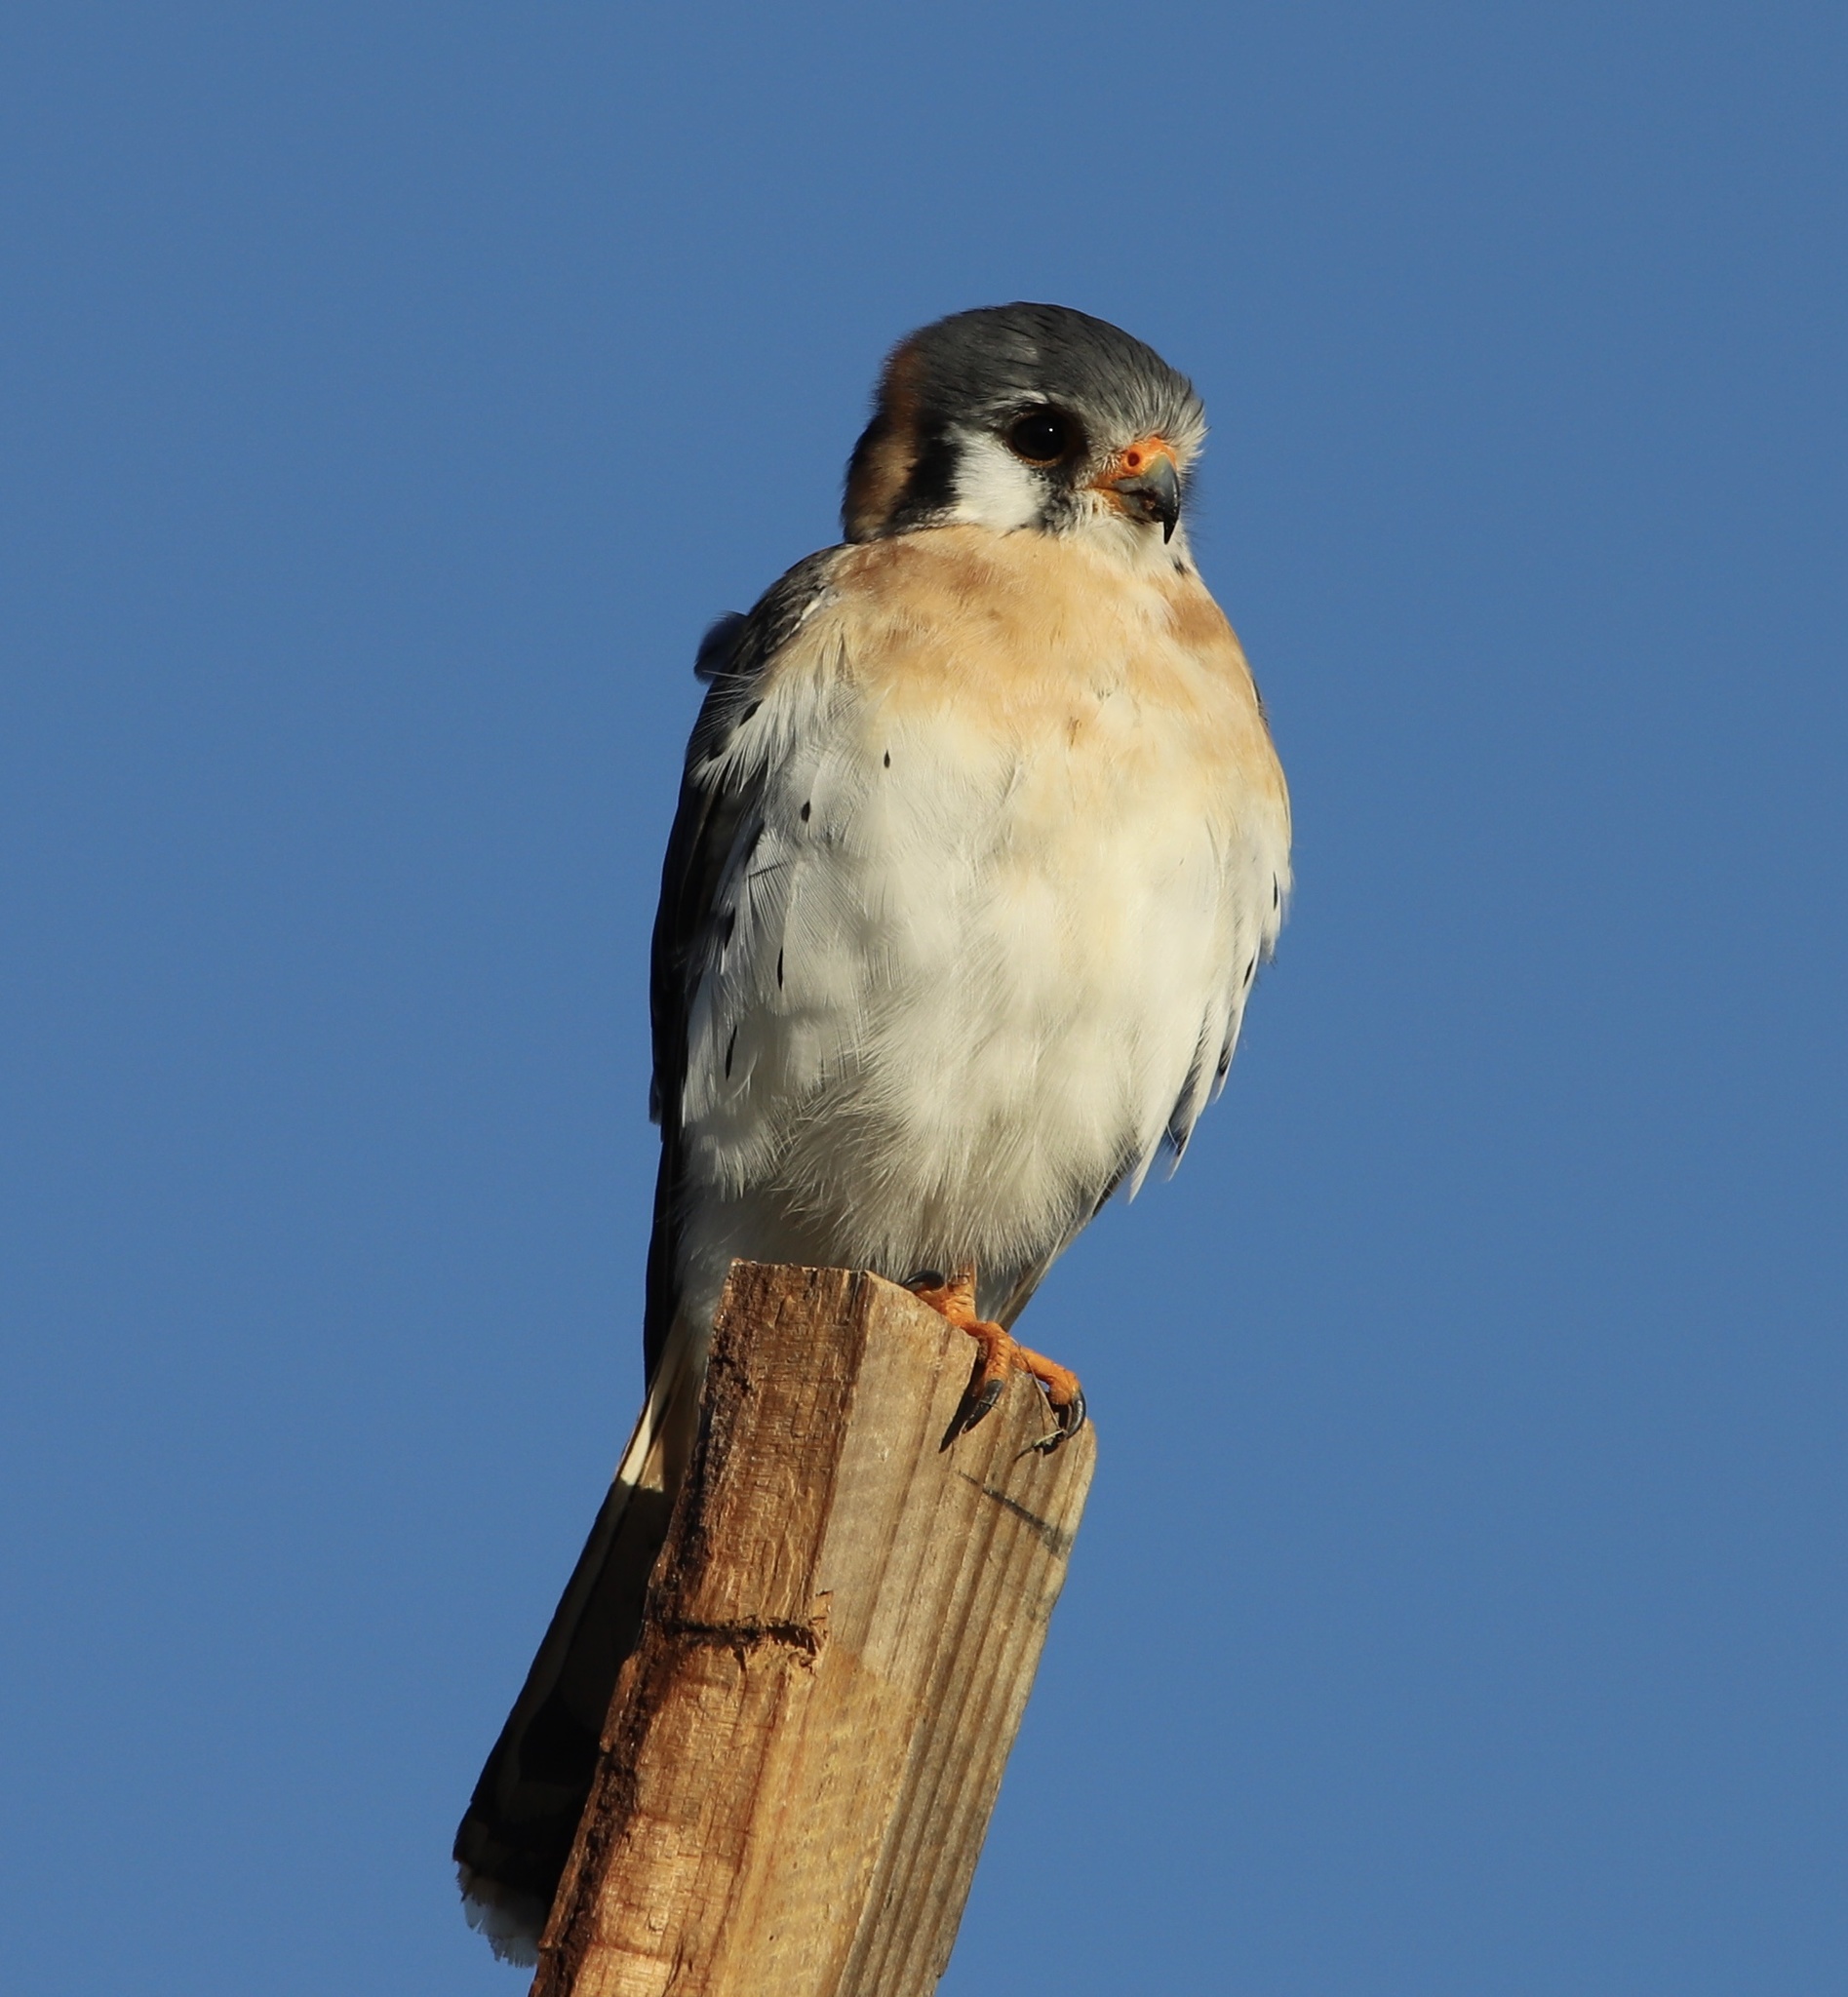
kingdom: Animalia
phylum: Chordata
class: Aves
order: Falconiformes
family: Falconidae
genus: Falco
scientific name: Falco sparverius
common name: American kestrel
